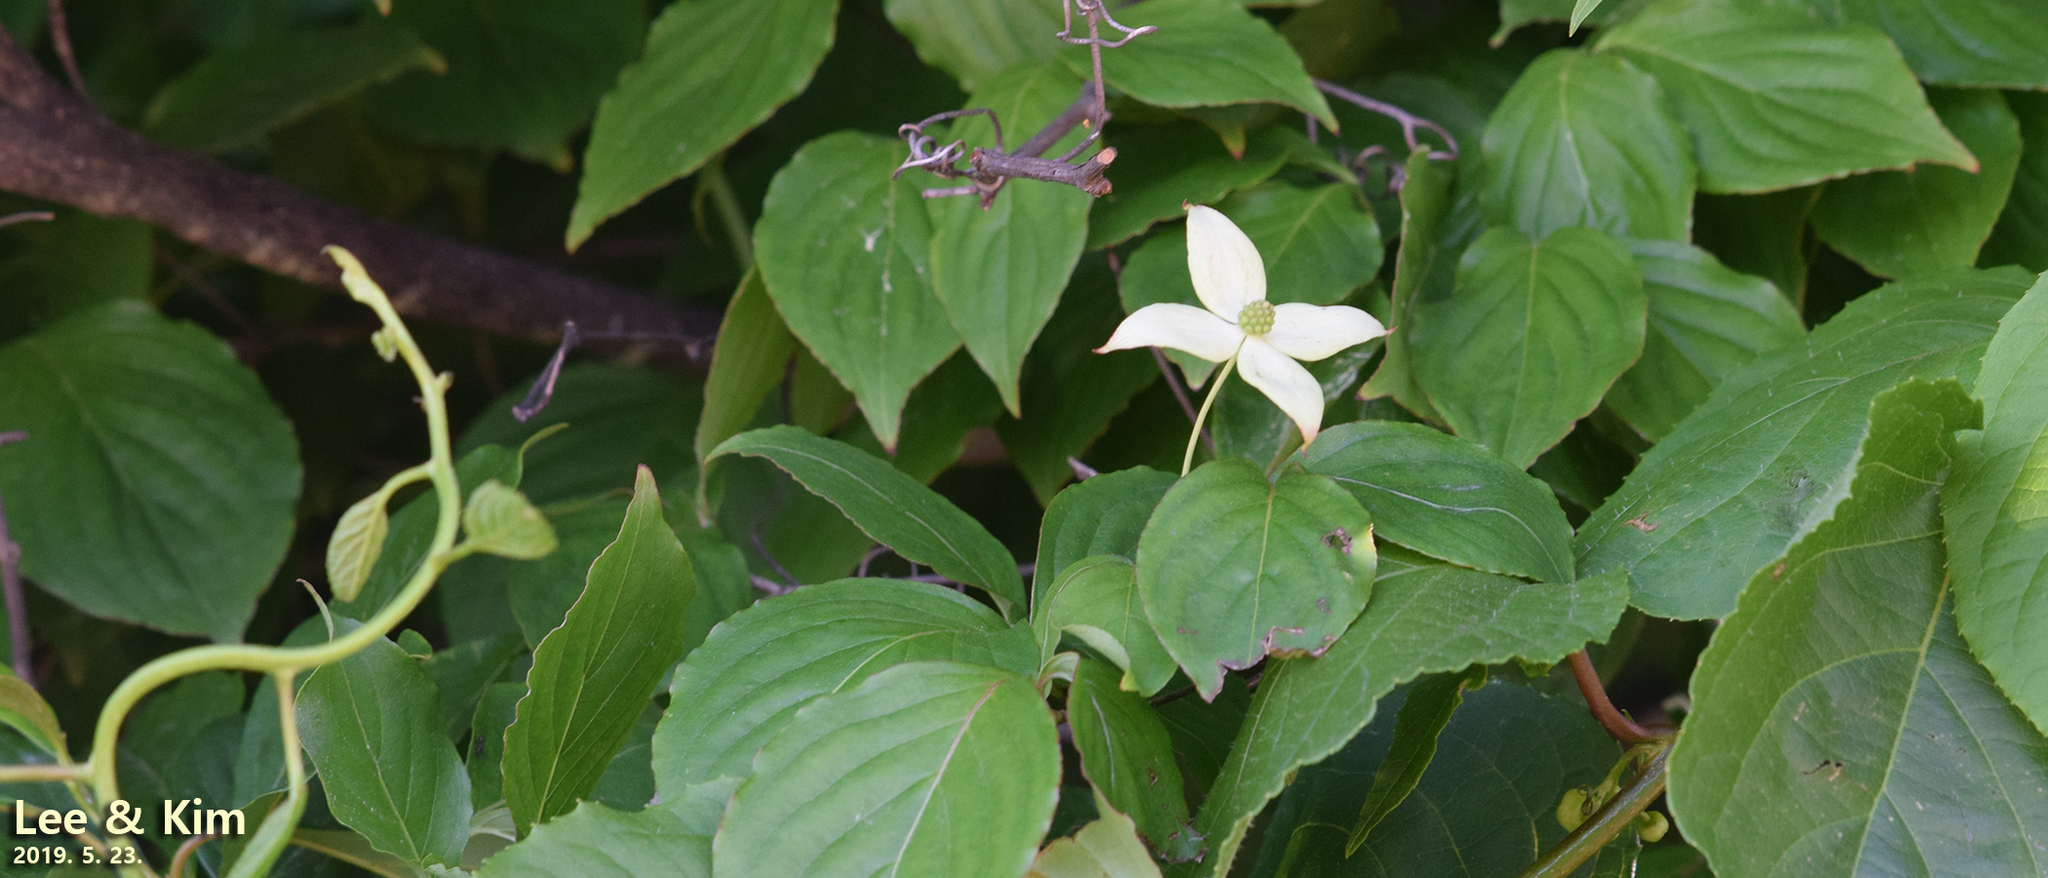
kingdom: Plantae
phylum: Tracheophyta
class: Magnoliopsida
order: Cornales
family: Cornaceae
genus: Cornus
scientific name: Cornus kousa
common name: Japanese dogwood
